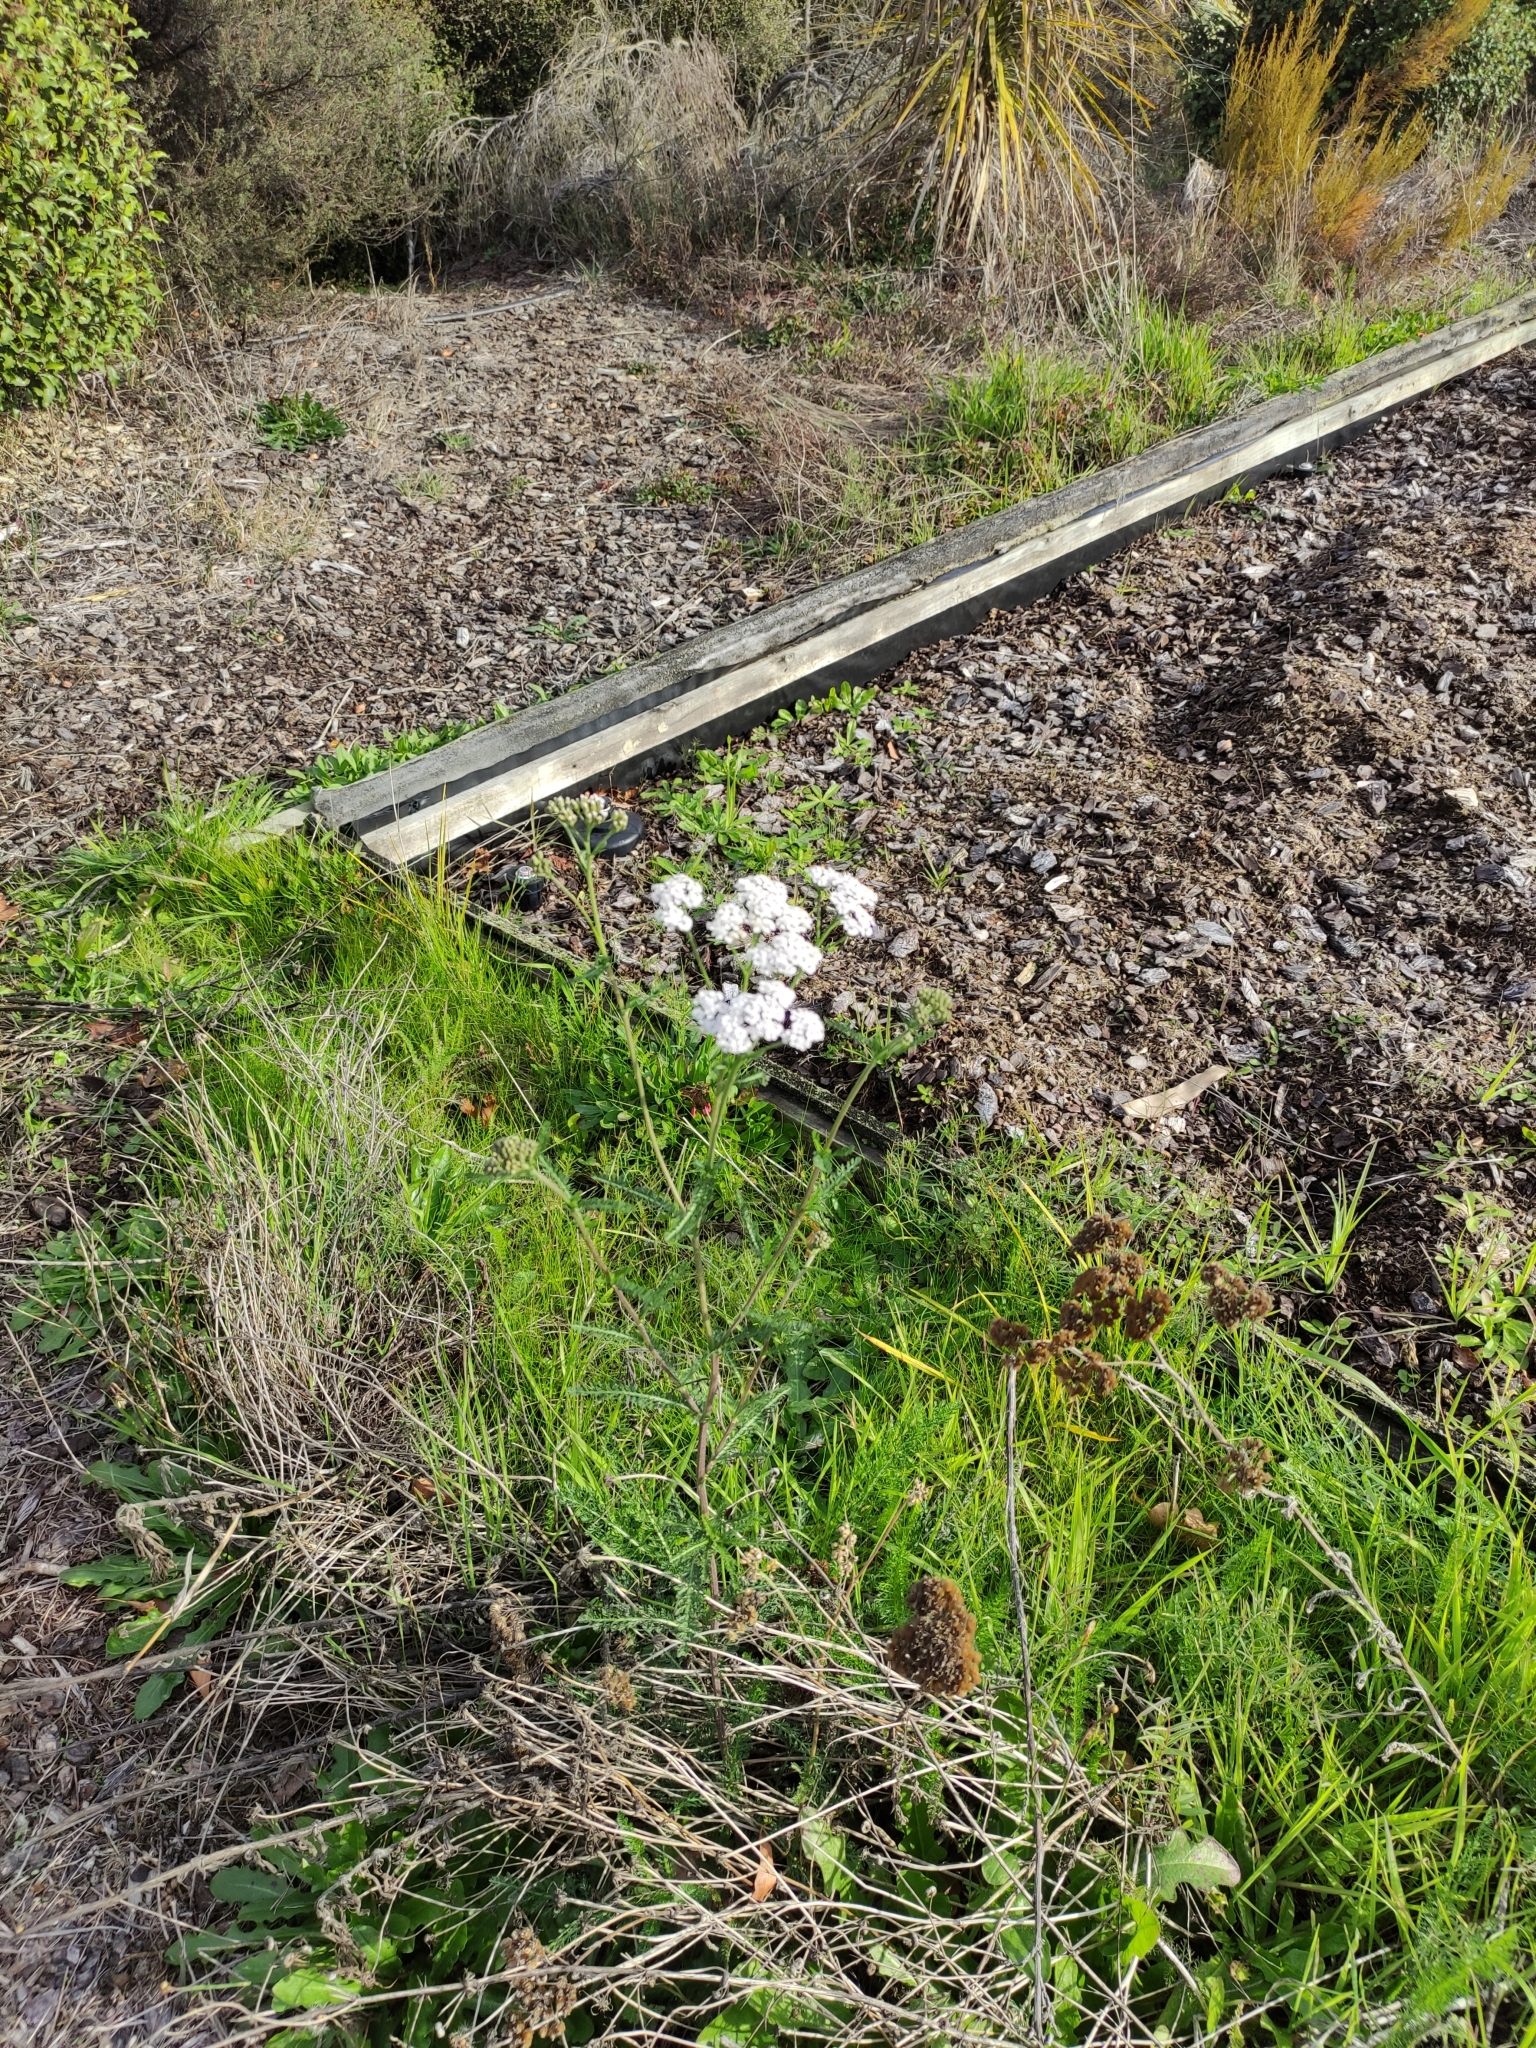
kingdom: Plantae
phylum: Tracheophyta
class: Magnoliopsida
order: Asterales
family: Asteraceae
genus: Achillea
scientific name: Achillea millefolium
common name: Yarrow
